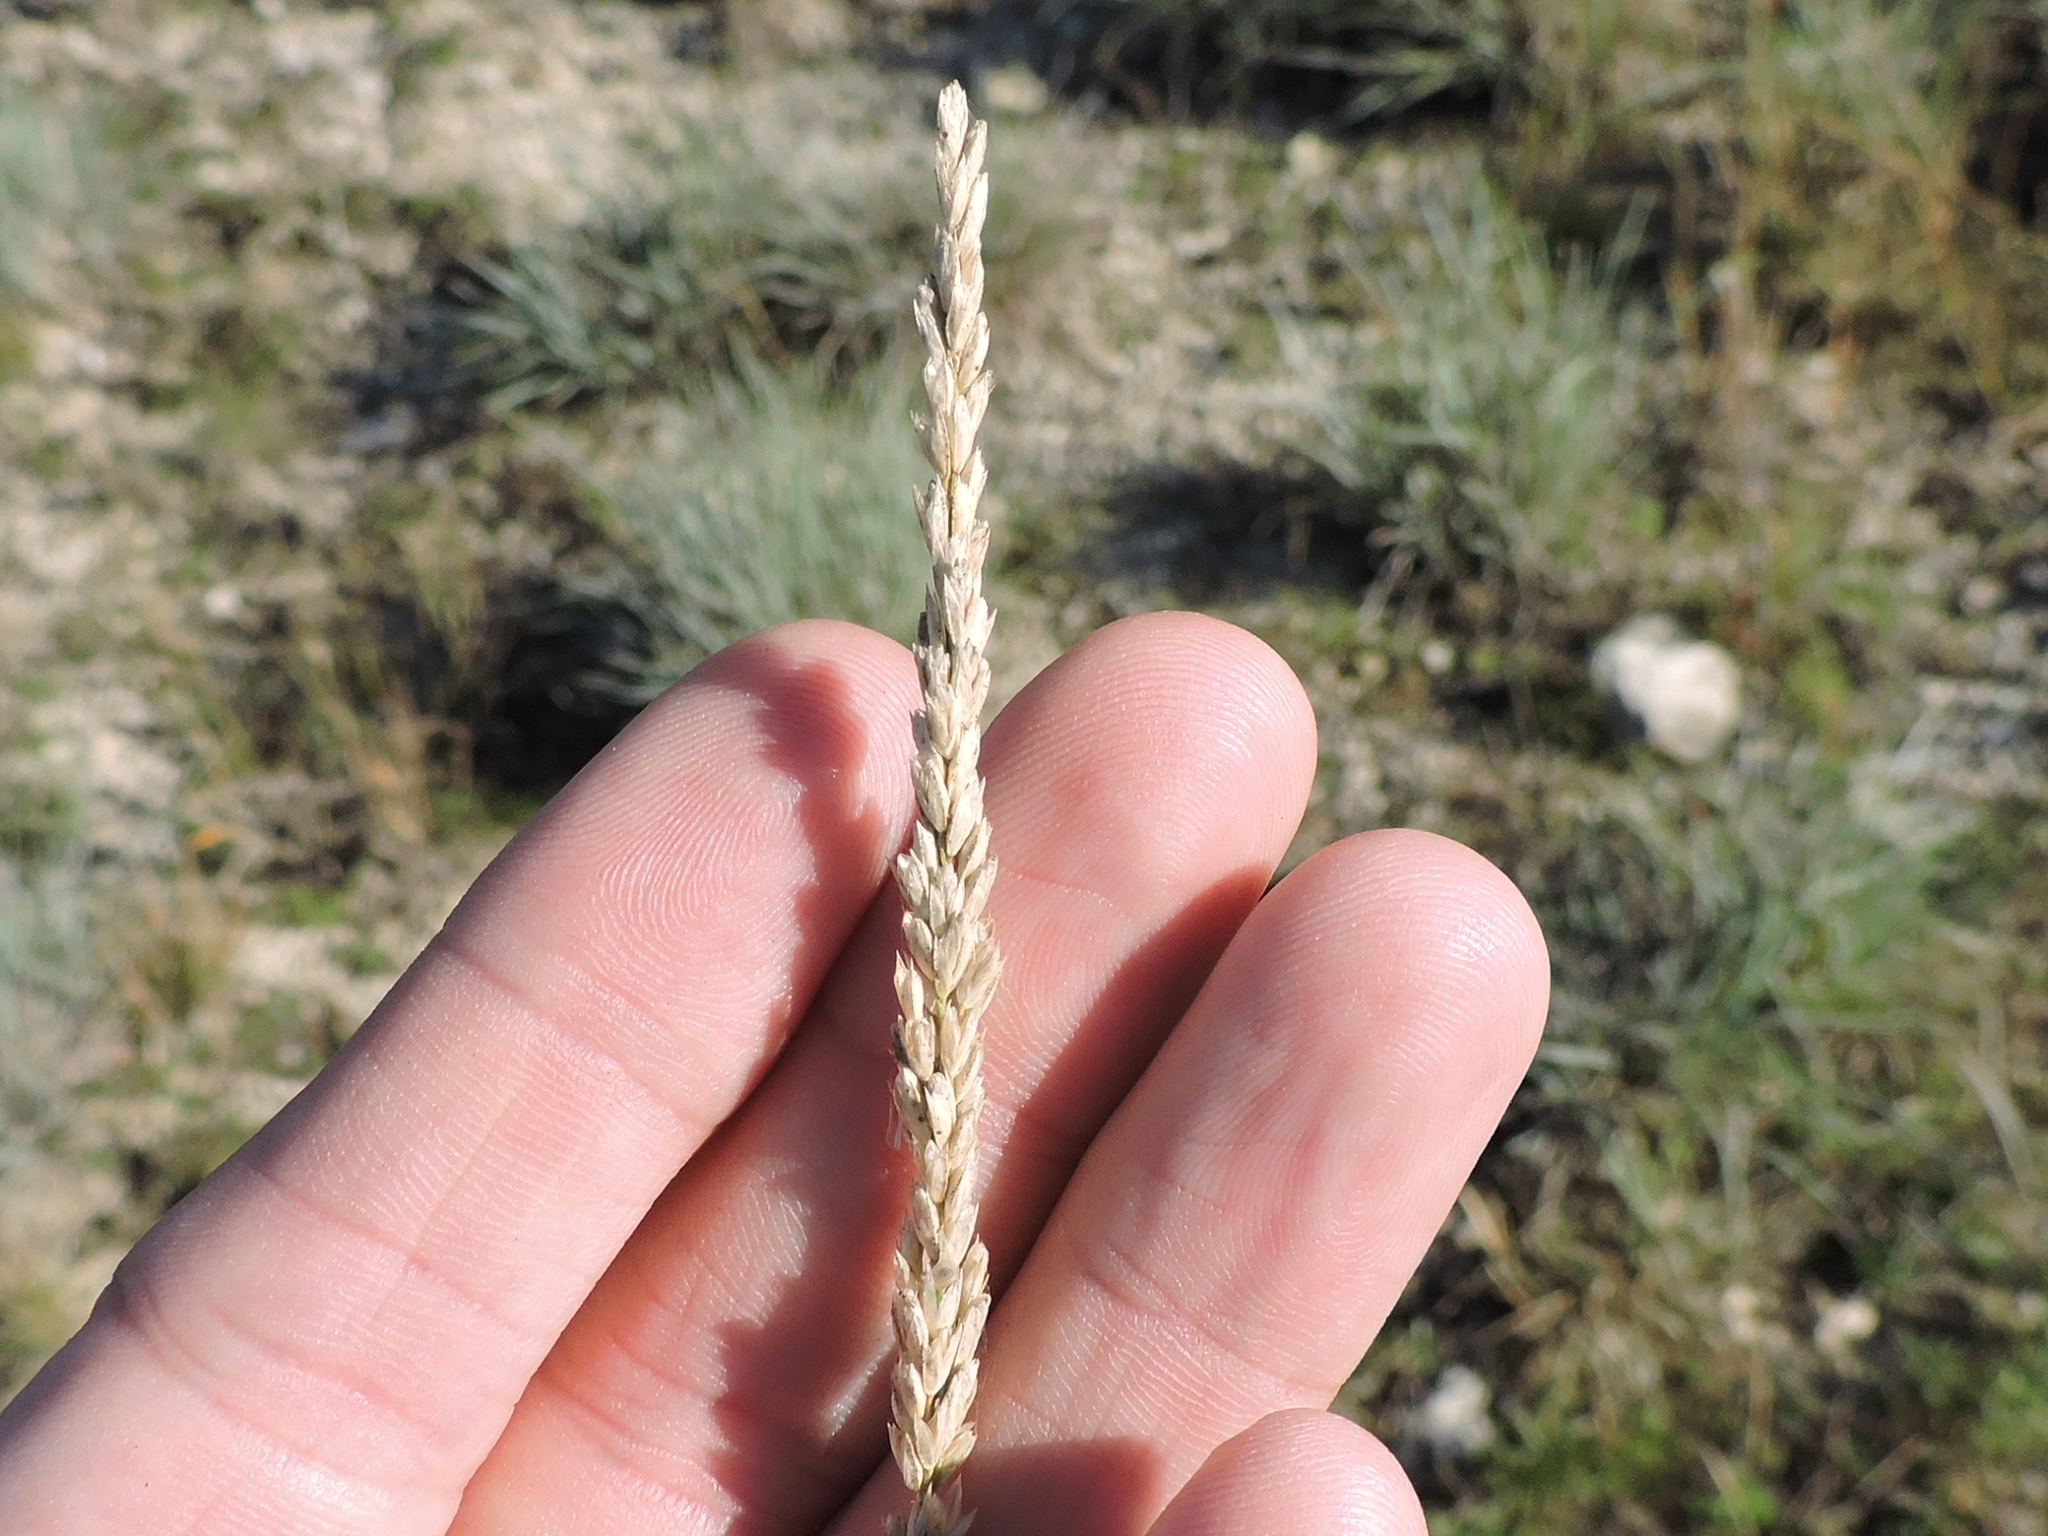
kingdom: Plantae
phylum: Tracheophyta
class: Liliopsida
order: Poales
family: Poaceae
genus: Tridens
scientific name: Tridens albescens
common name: White tridens
